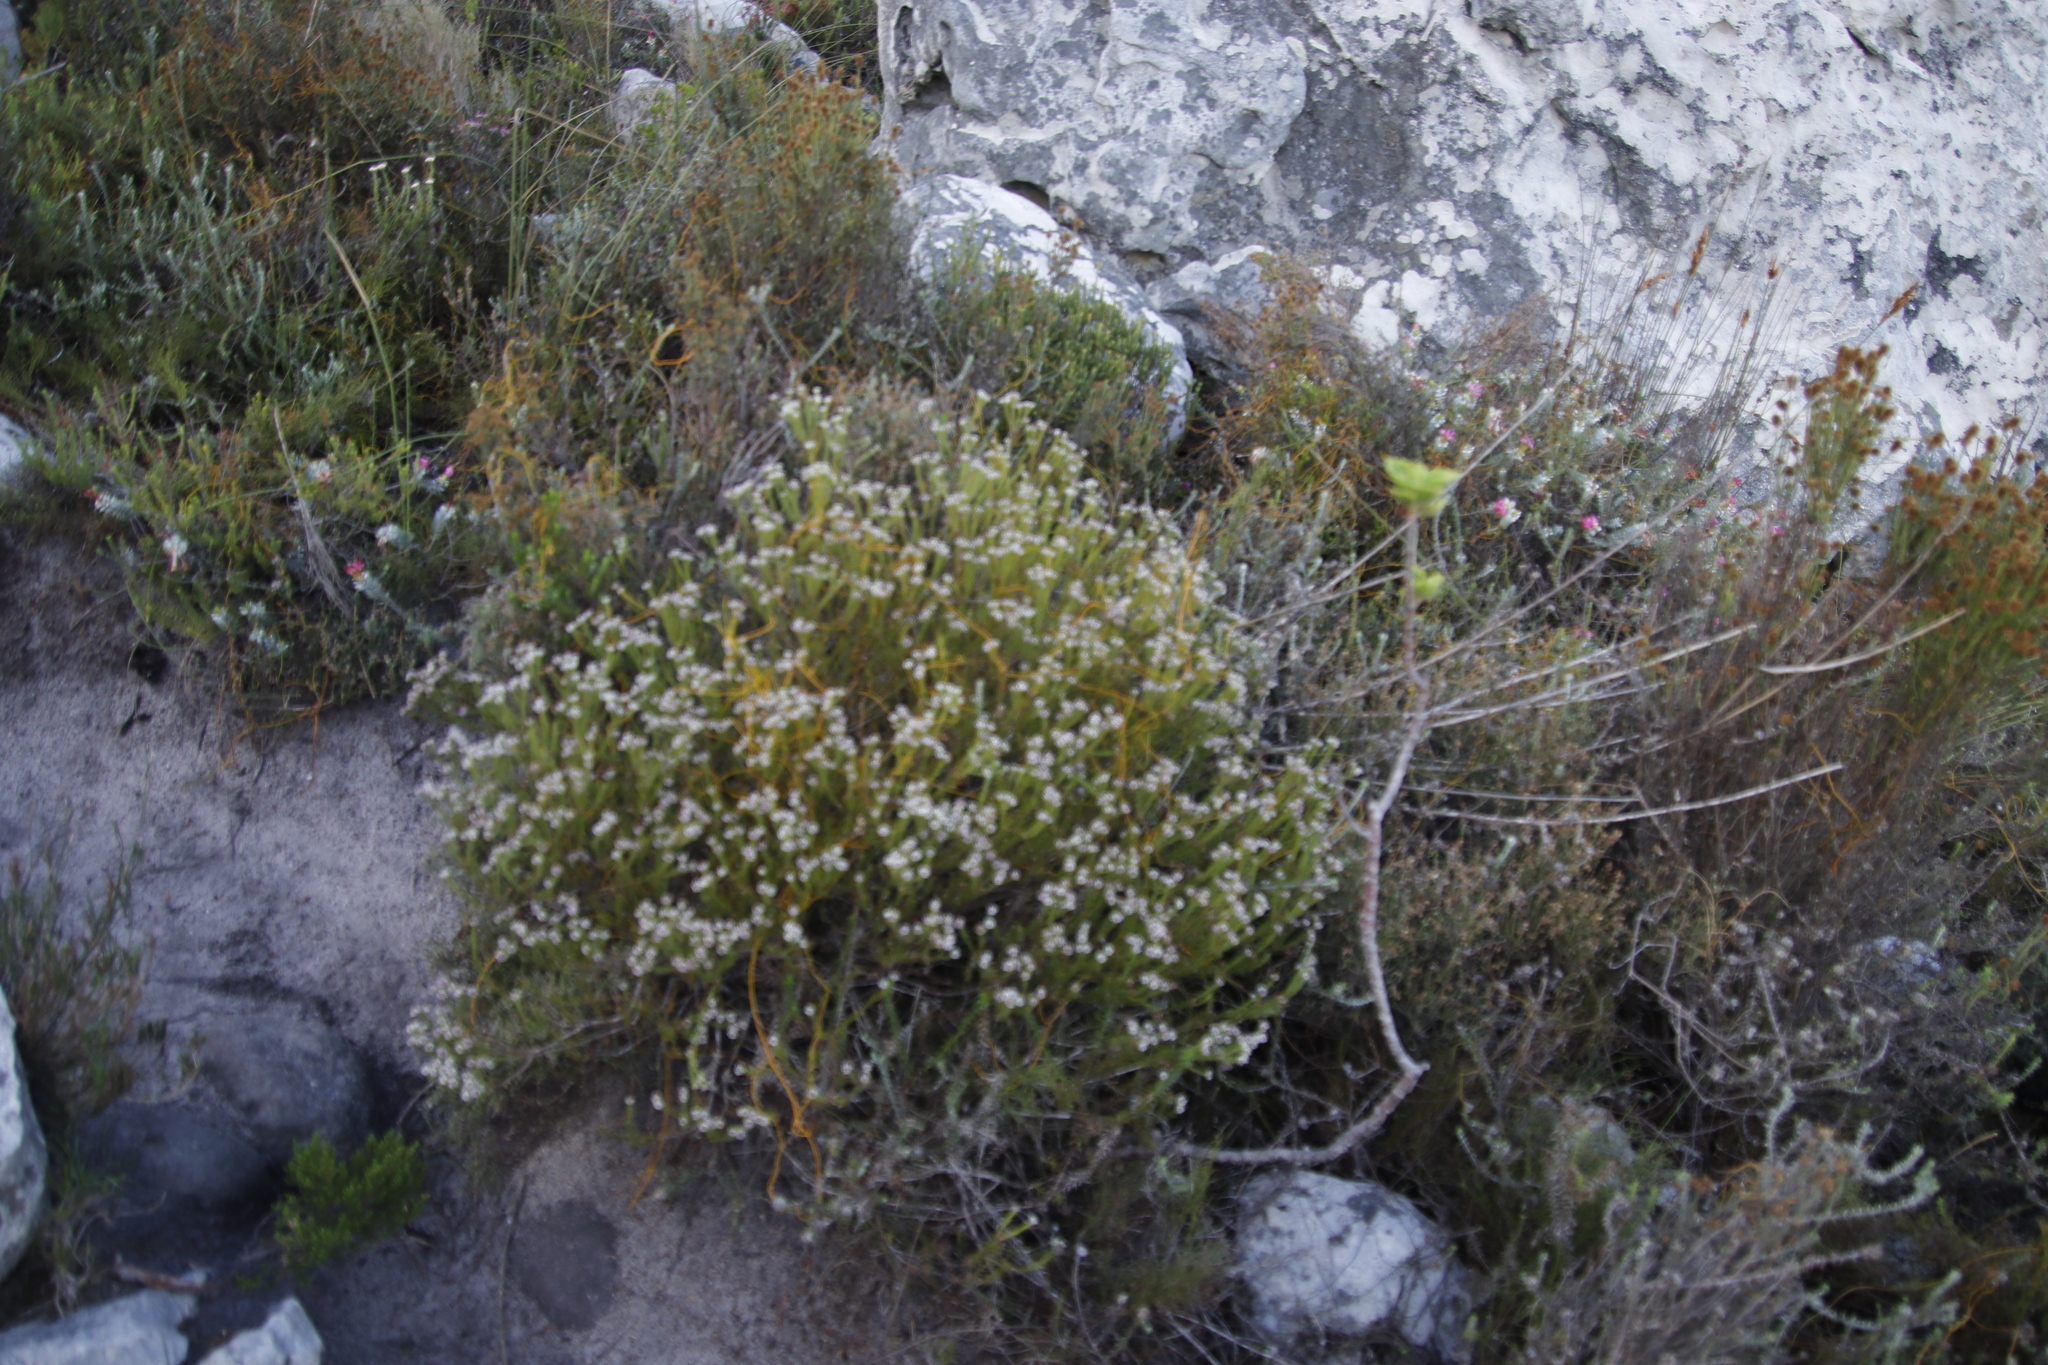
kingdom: Plantae
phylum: Tracheophyta
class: Magnoliopsida
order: Bruniales
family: Bruniaceae
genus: Staavia
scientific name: Staavia radiata
